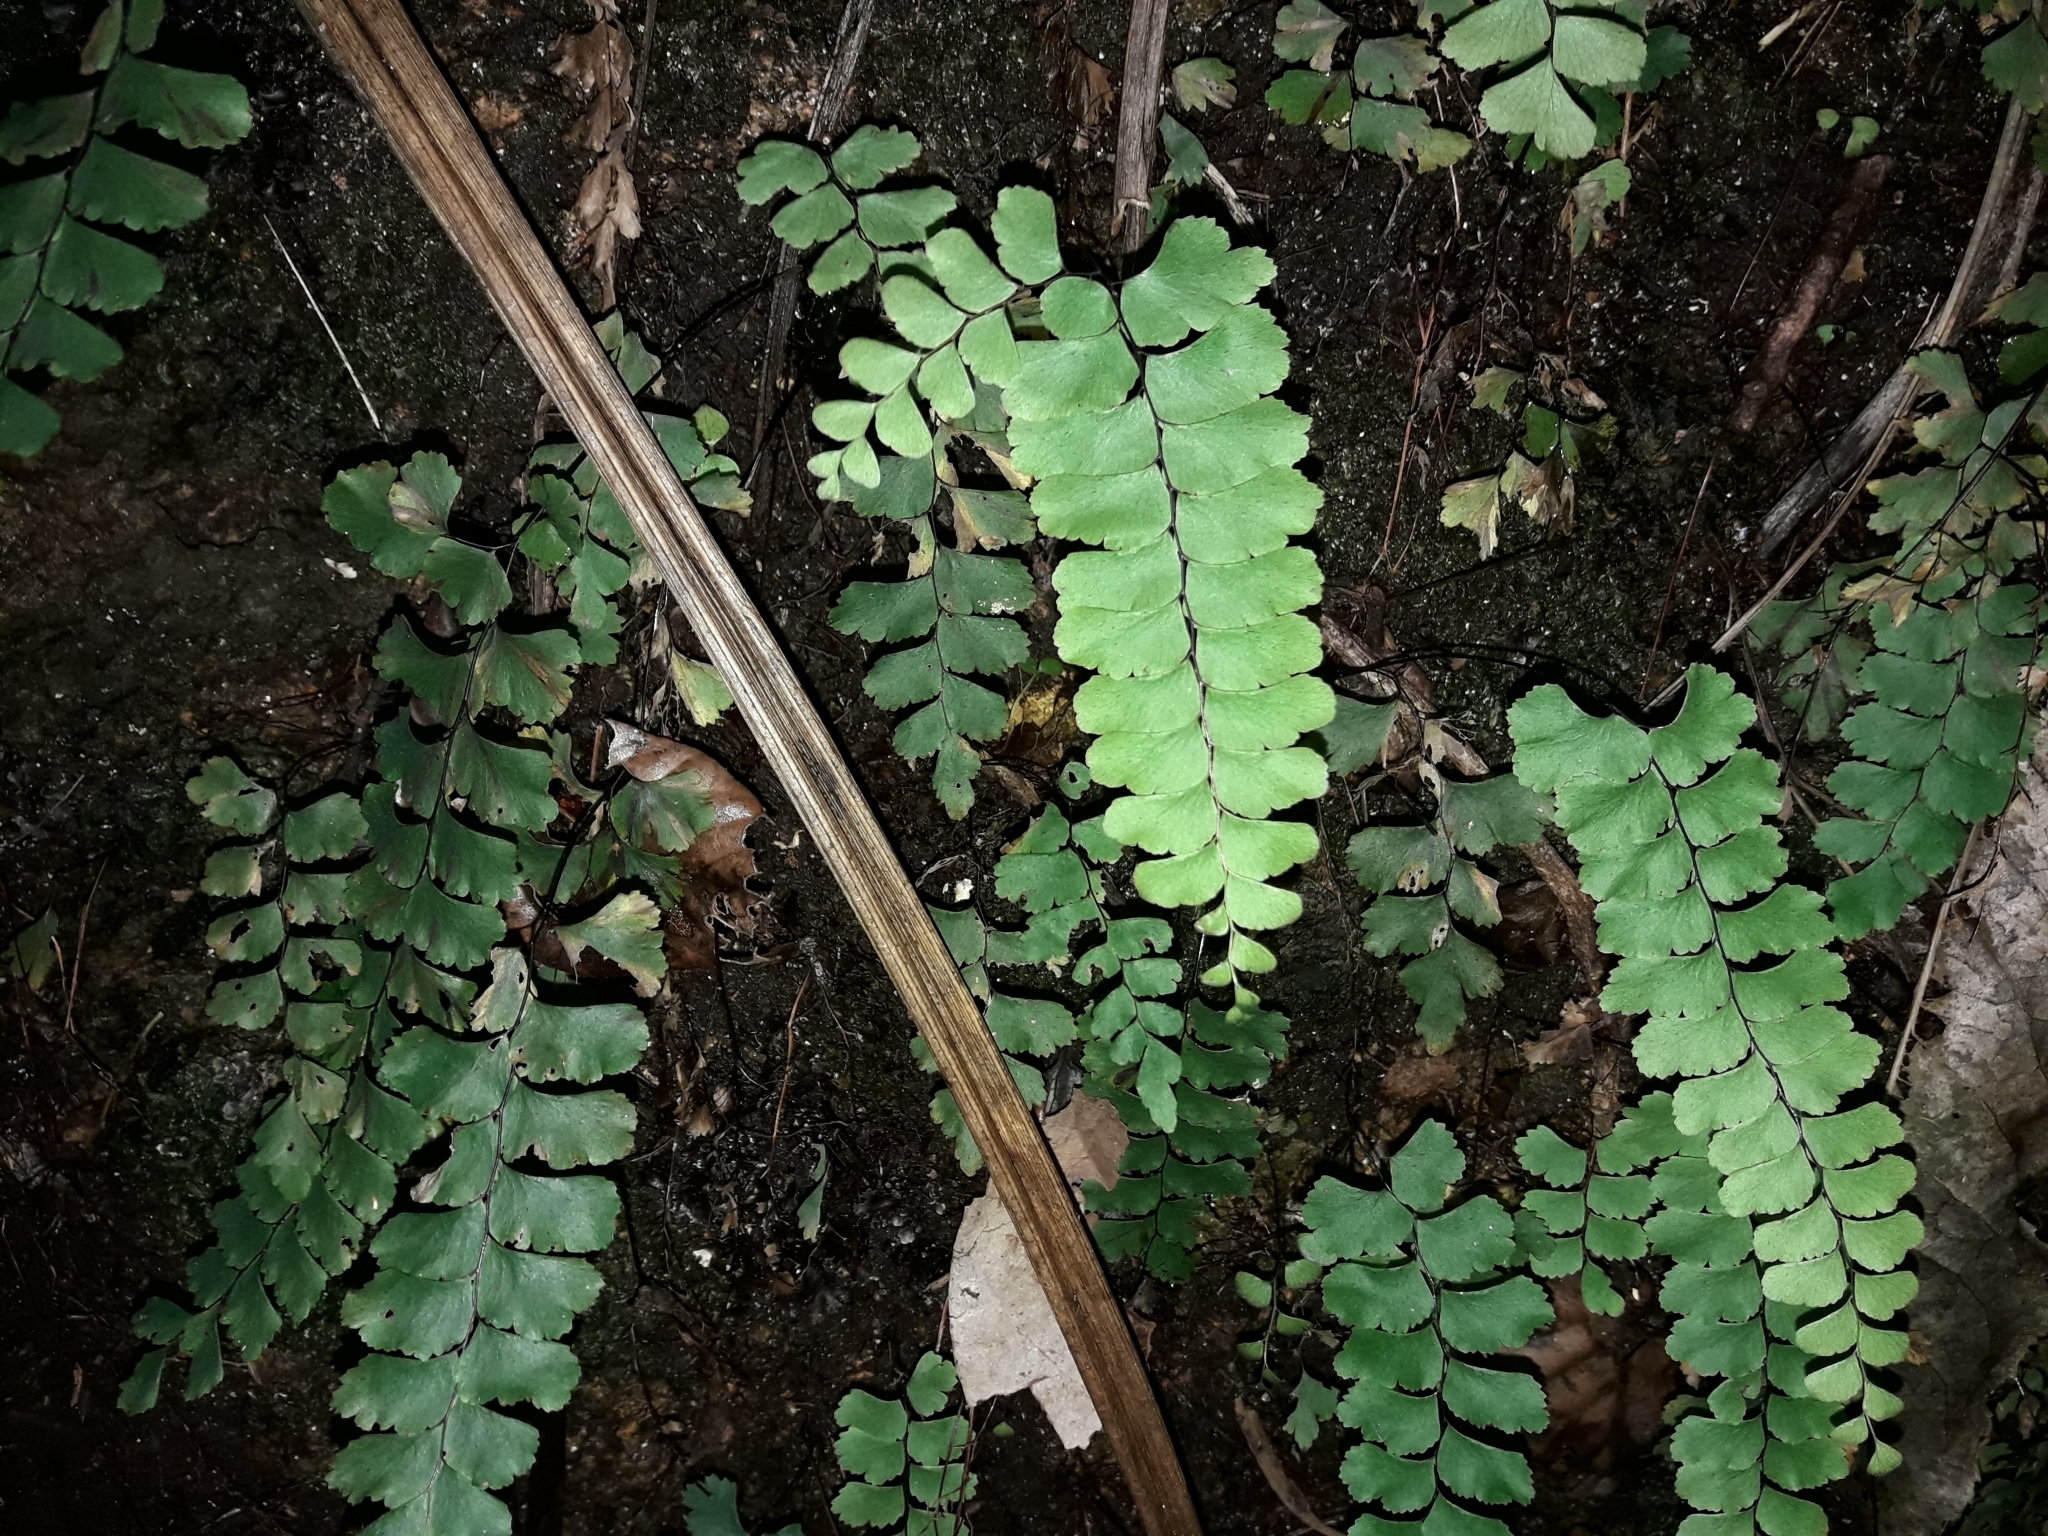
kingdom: Plantae
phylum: Tracheophyta
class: Polypodiopsida
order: Polypodiales
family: Pteridaceae
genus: Adiantum
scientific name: Adiantum diaphanum
